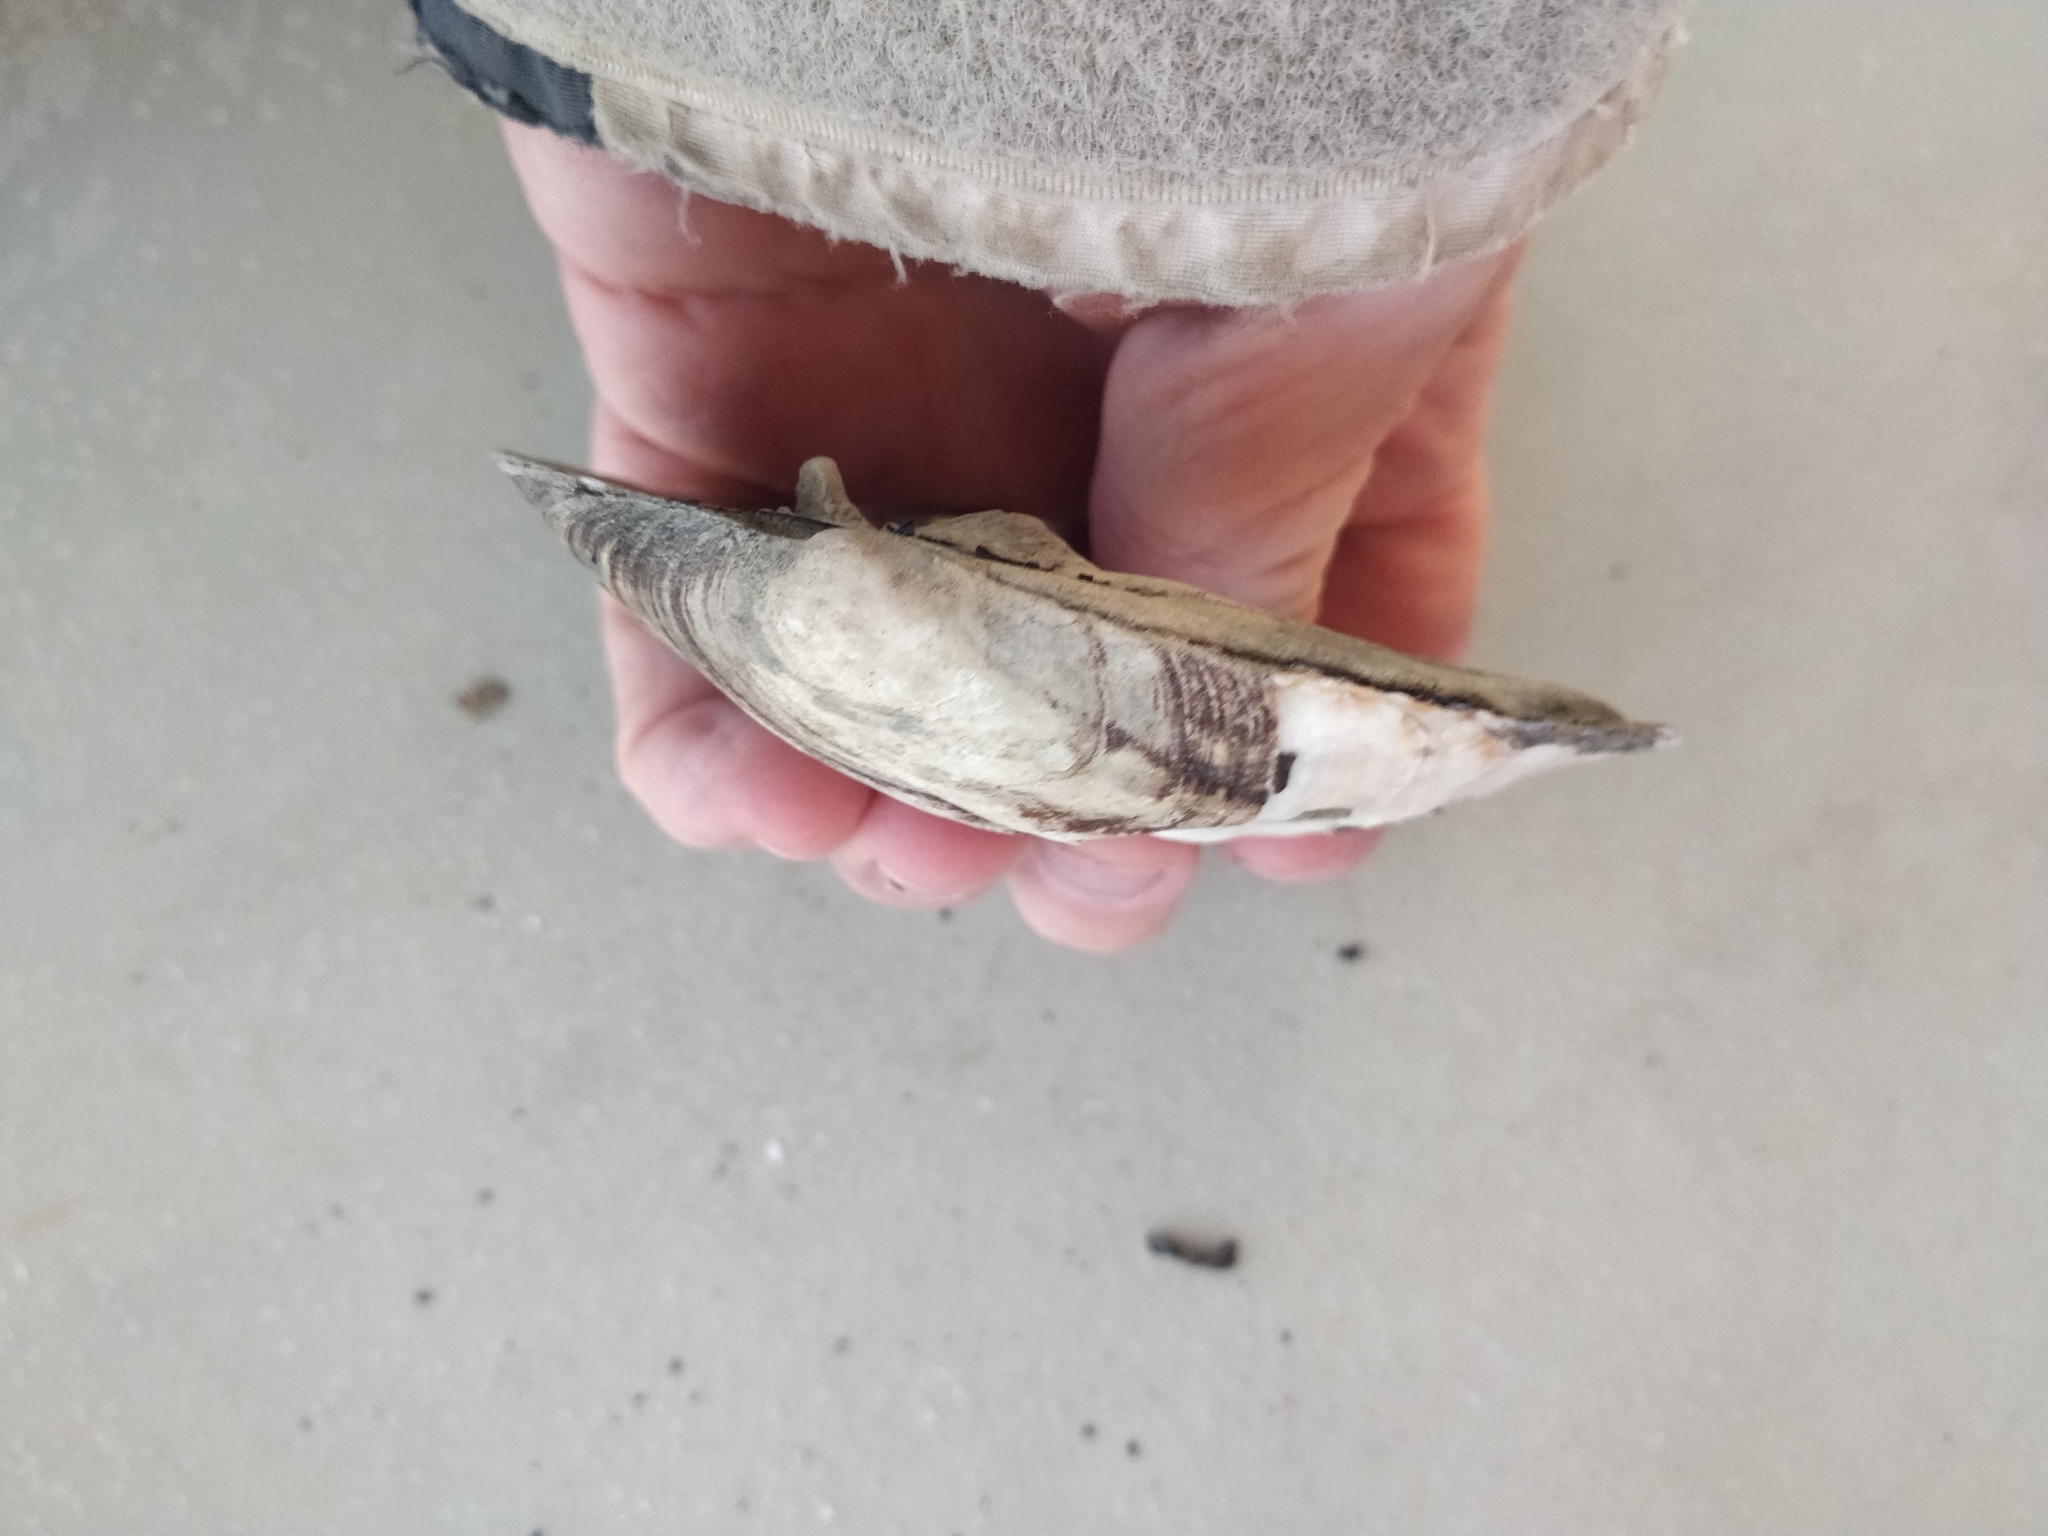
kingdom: Animalia
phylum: Mollusca
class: Bivalvia
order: Unionida
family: Unionidae
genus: Amblema
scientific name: Amblema plicata
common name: Threeridge
